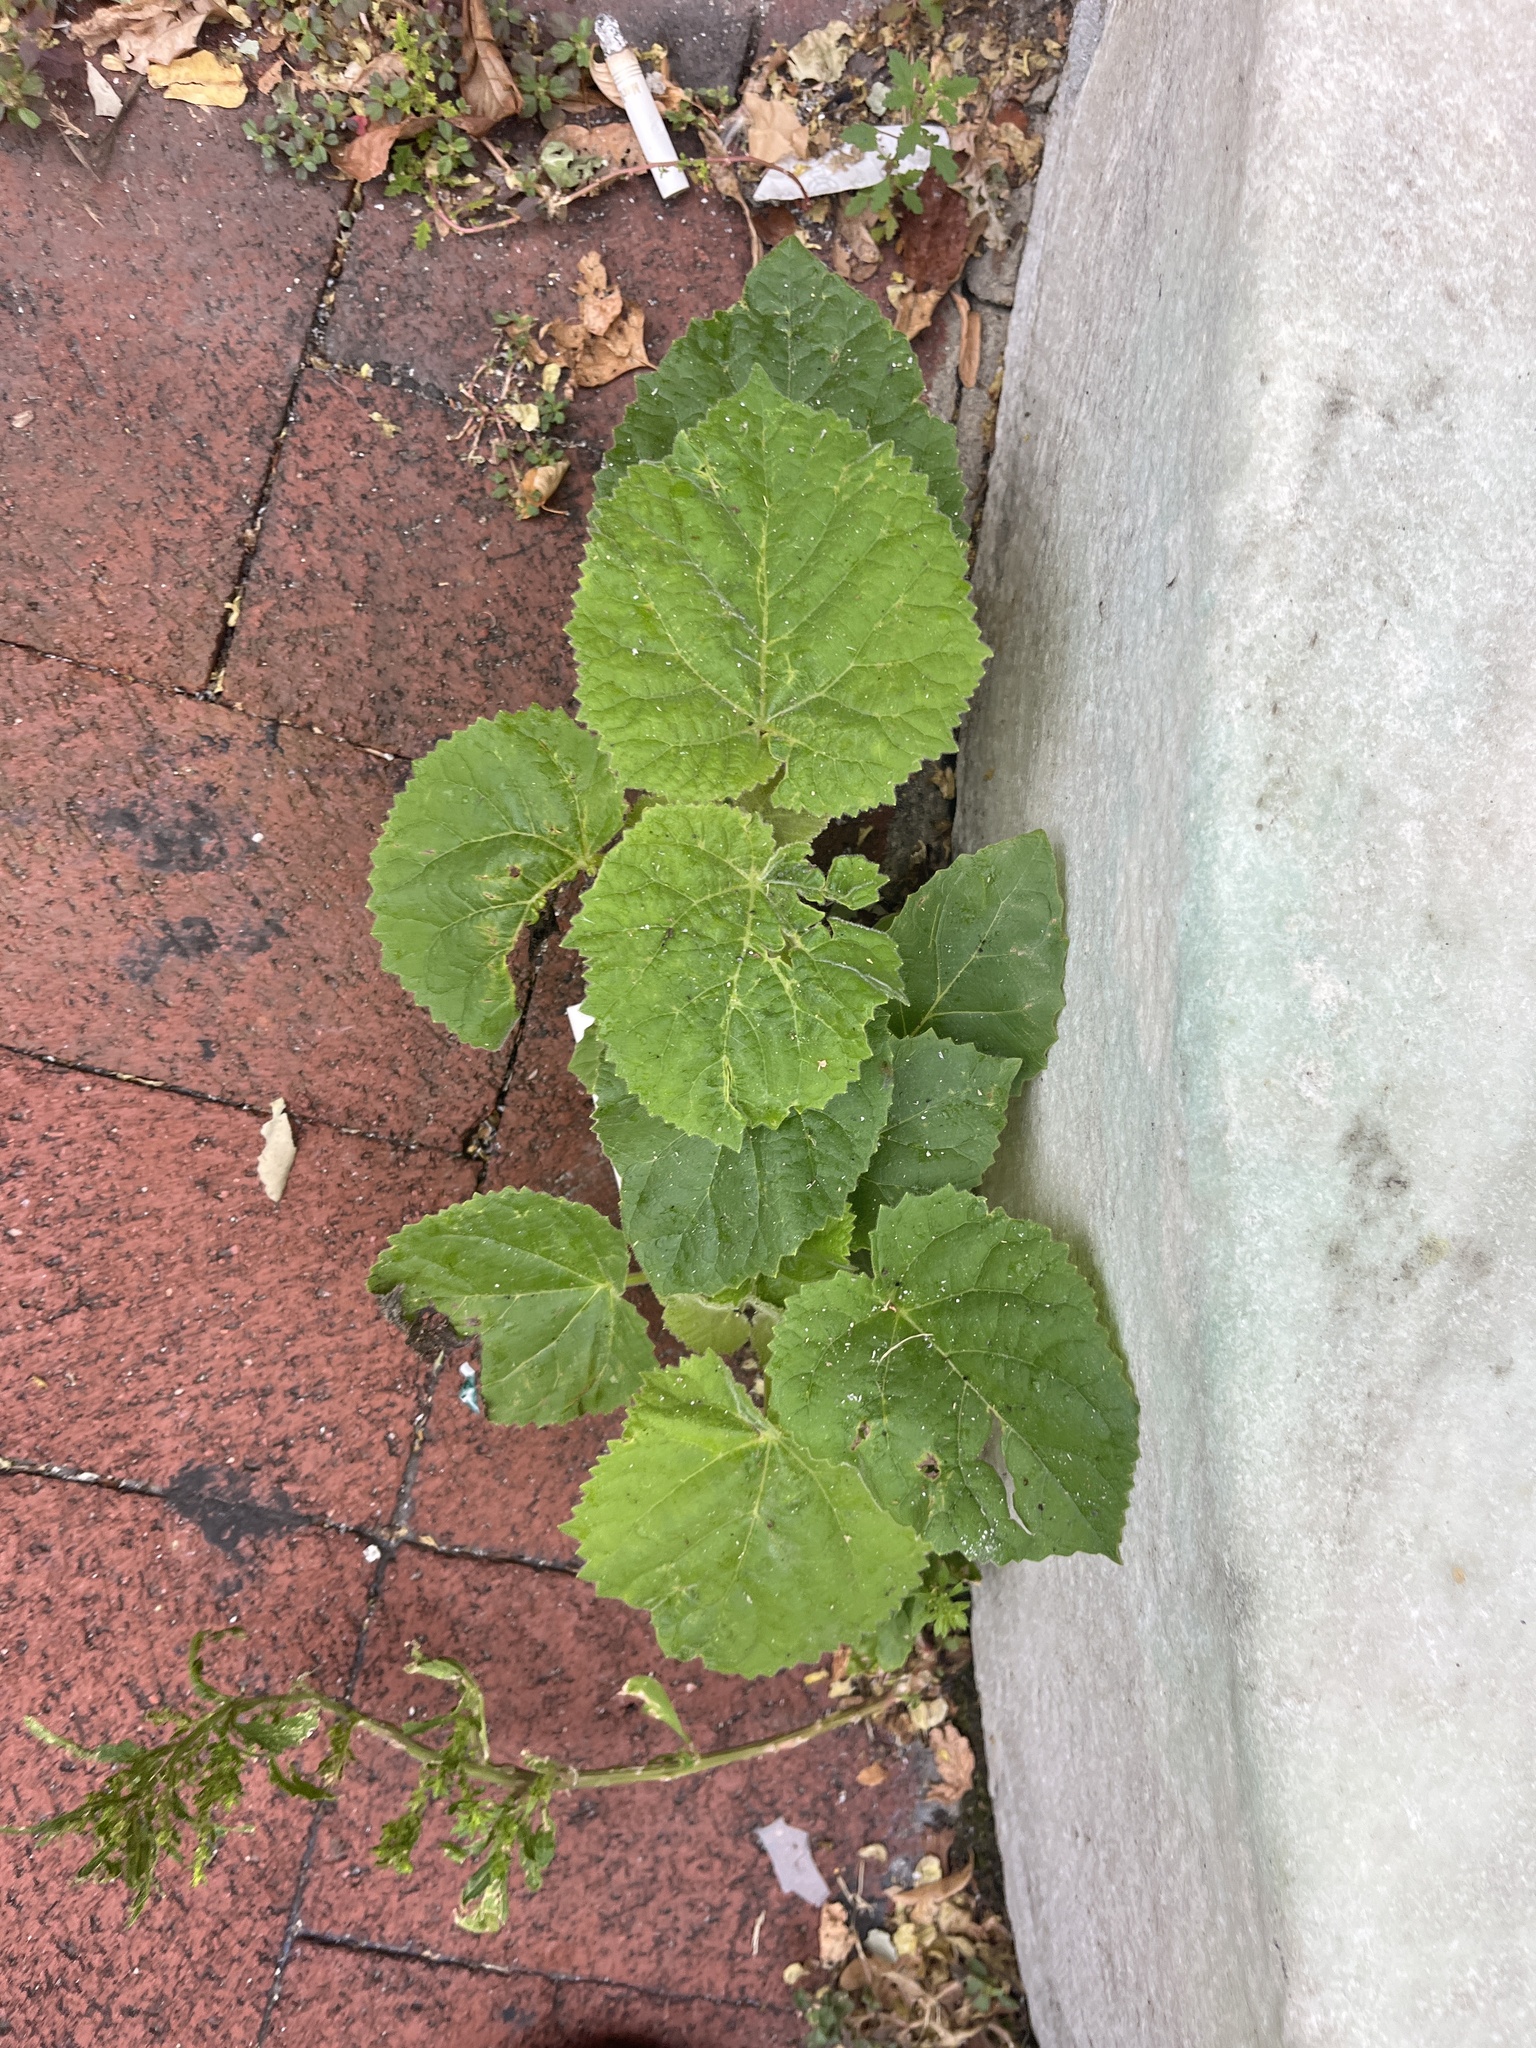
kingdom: Plantae
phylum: Tracheophyta
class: Magnoliopsida
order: Lamiales
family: Paulowniaceae
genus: Paulownia
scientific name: Paulownia tomentosa
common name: Foxglove-tree
